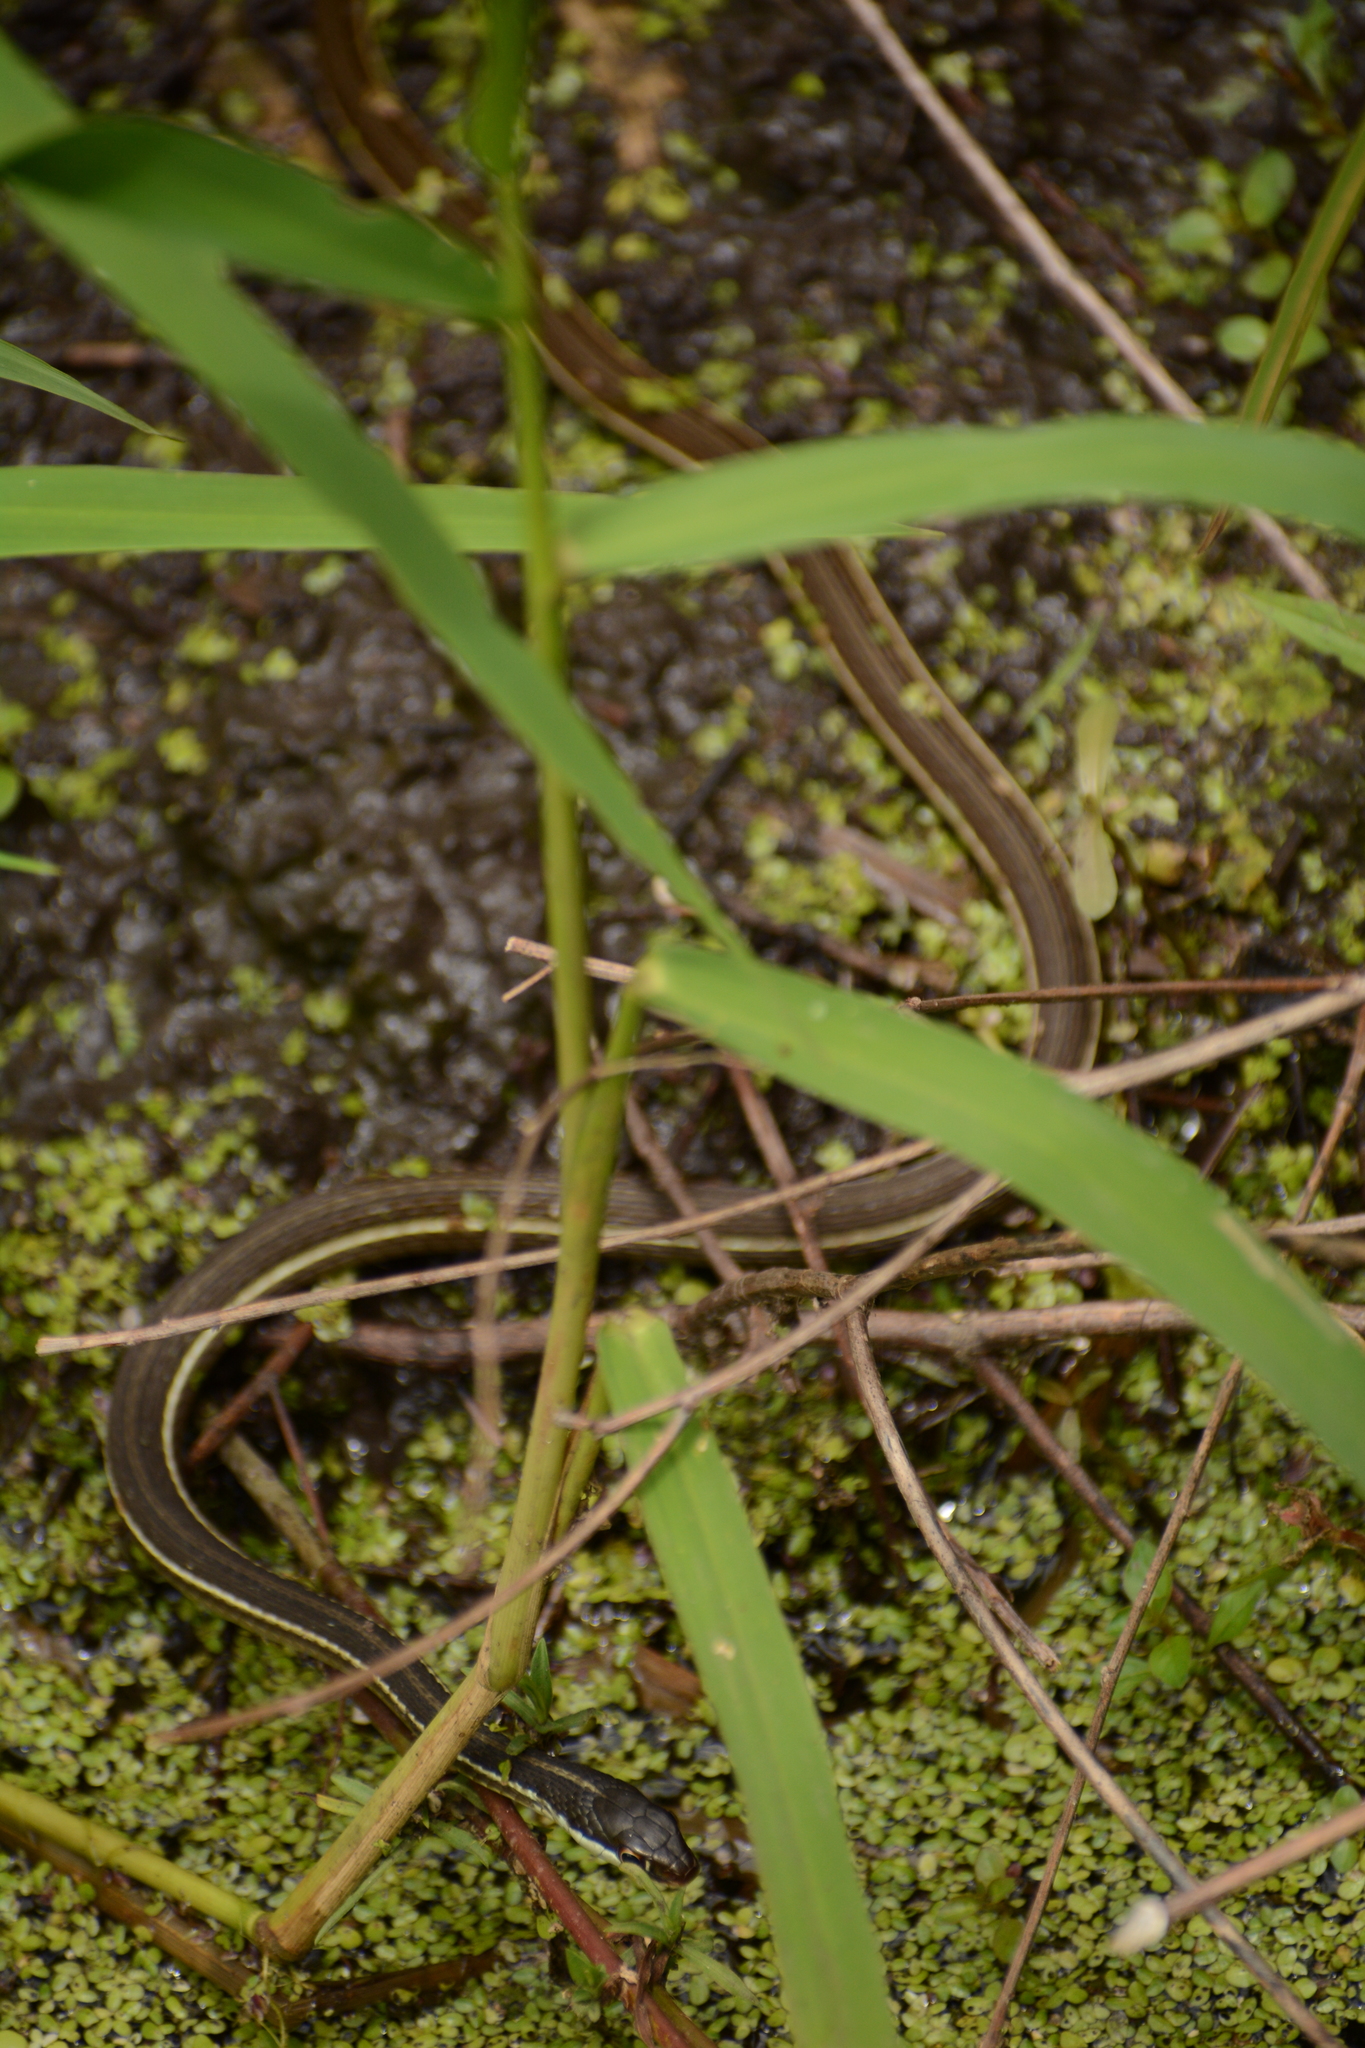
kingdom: Animalia
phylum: Chordata
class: Squamata
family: Colubridae
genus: Thamnophis
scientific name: Thamnophis saurita
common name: Eastern ribbonsnake
